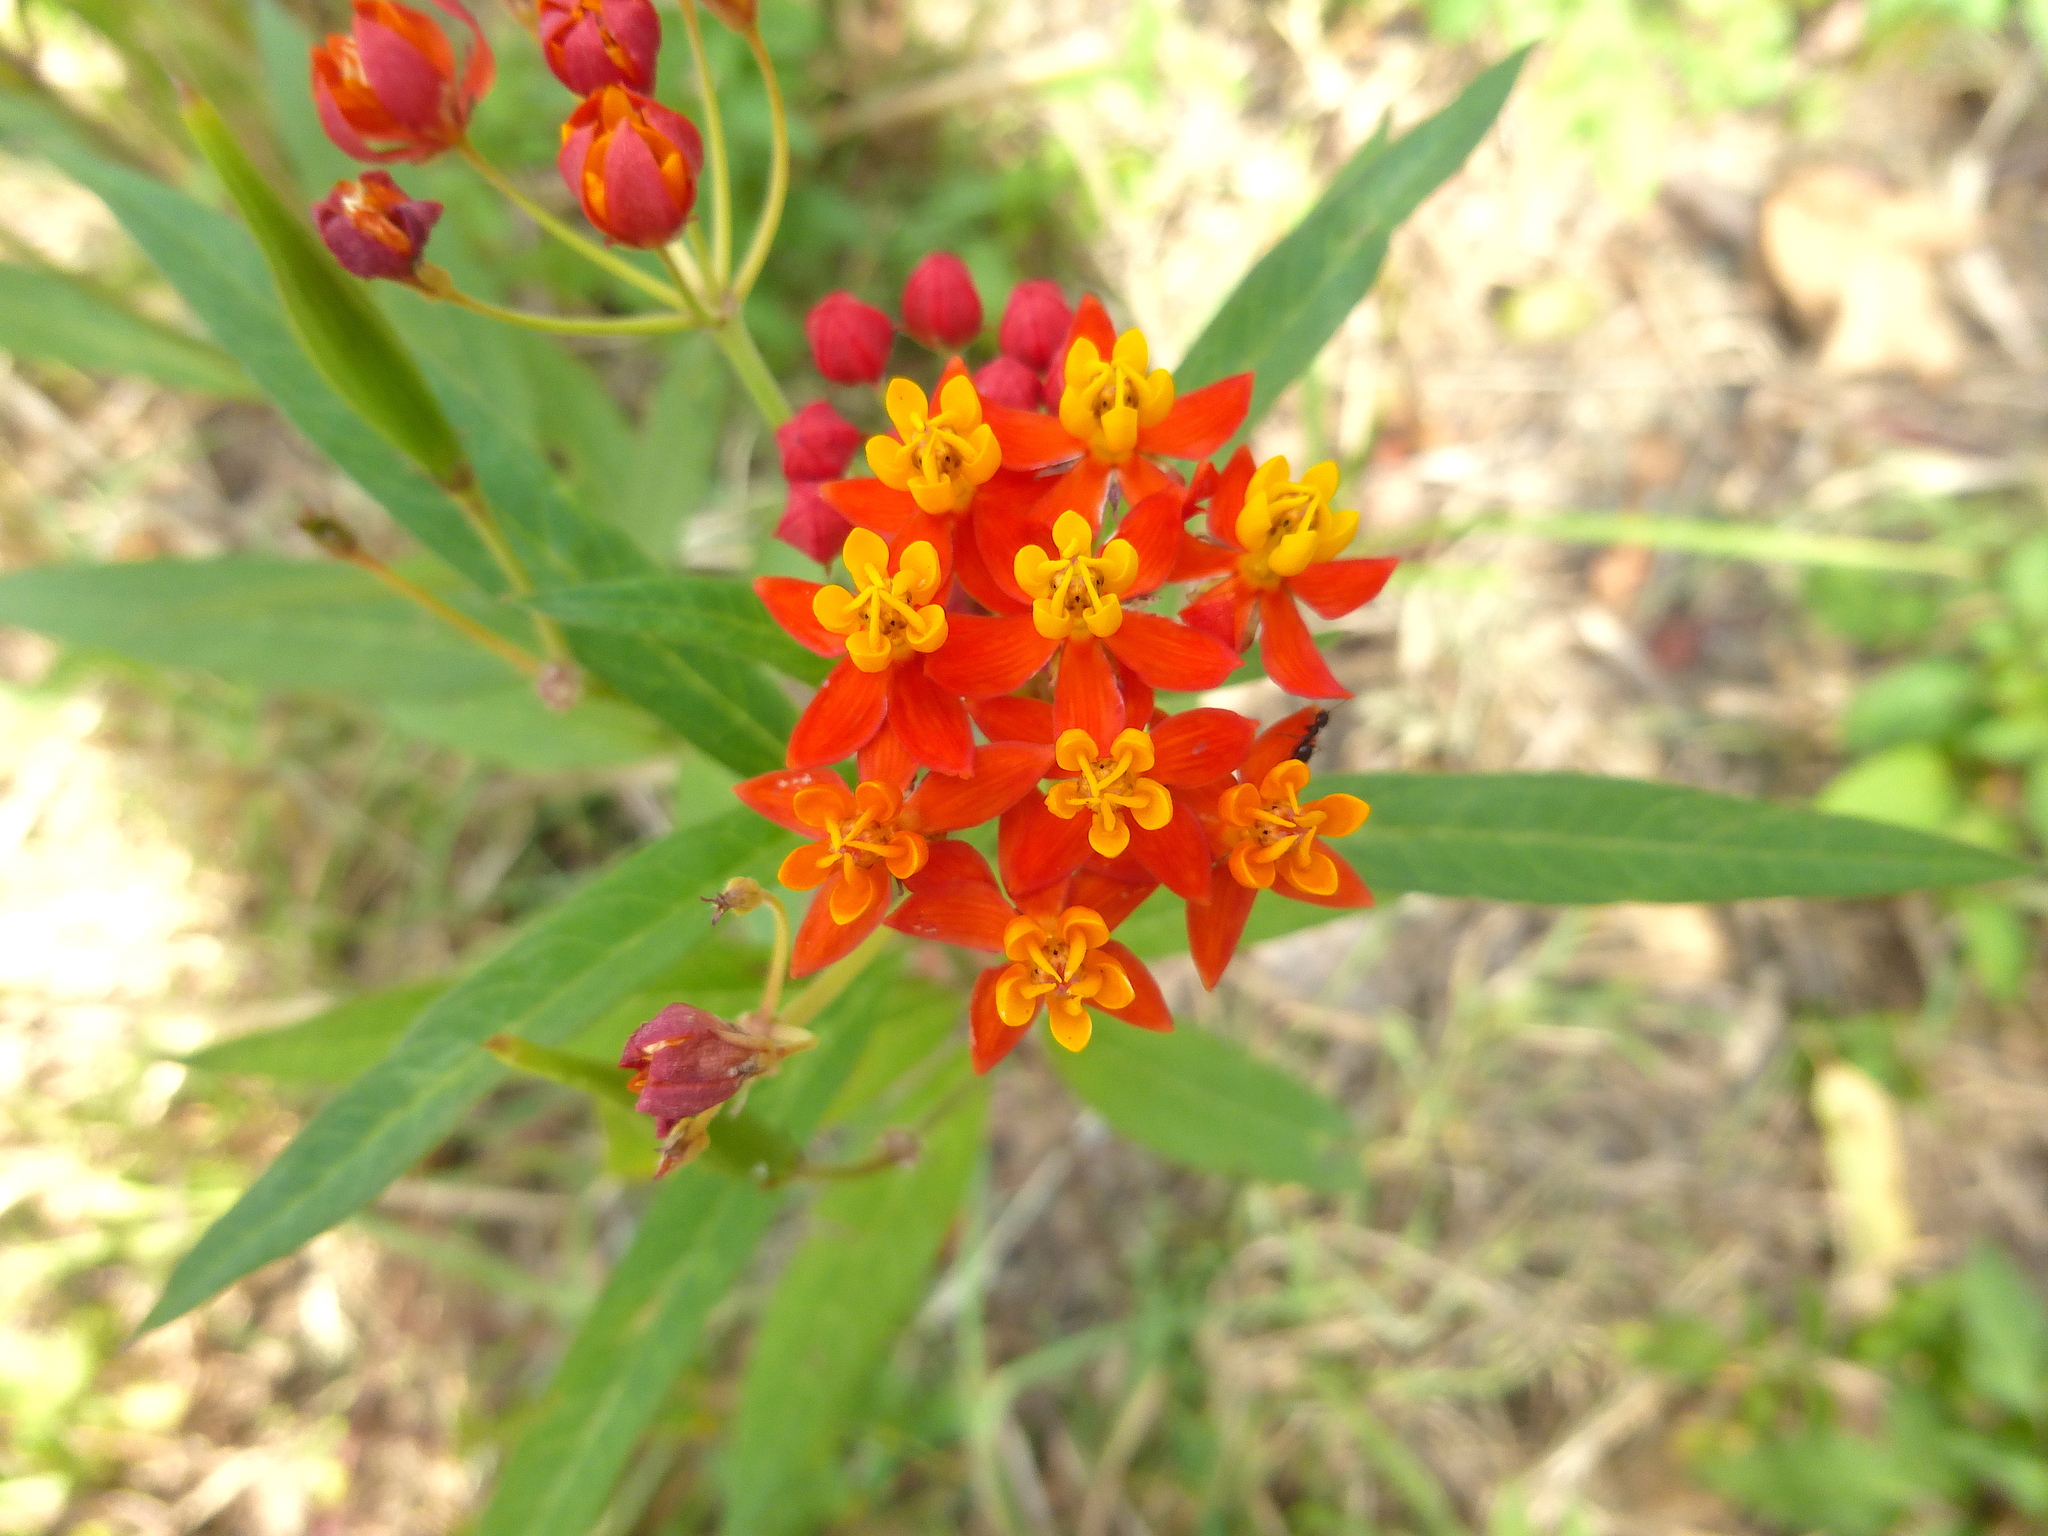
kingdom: Plantae
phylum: Tracheophyta
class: Magnoliopsida
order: Gentianales
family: Apocynaceae
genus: Asclepias
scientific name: Asclepias curassavica
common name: Bloodflower
